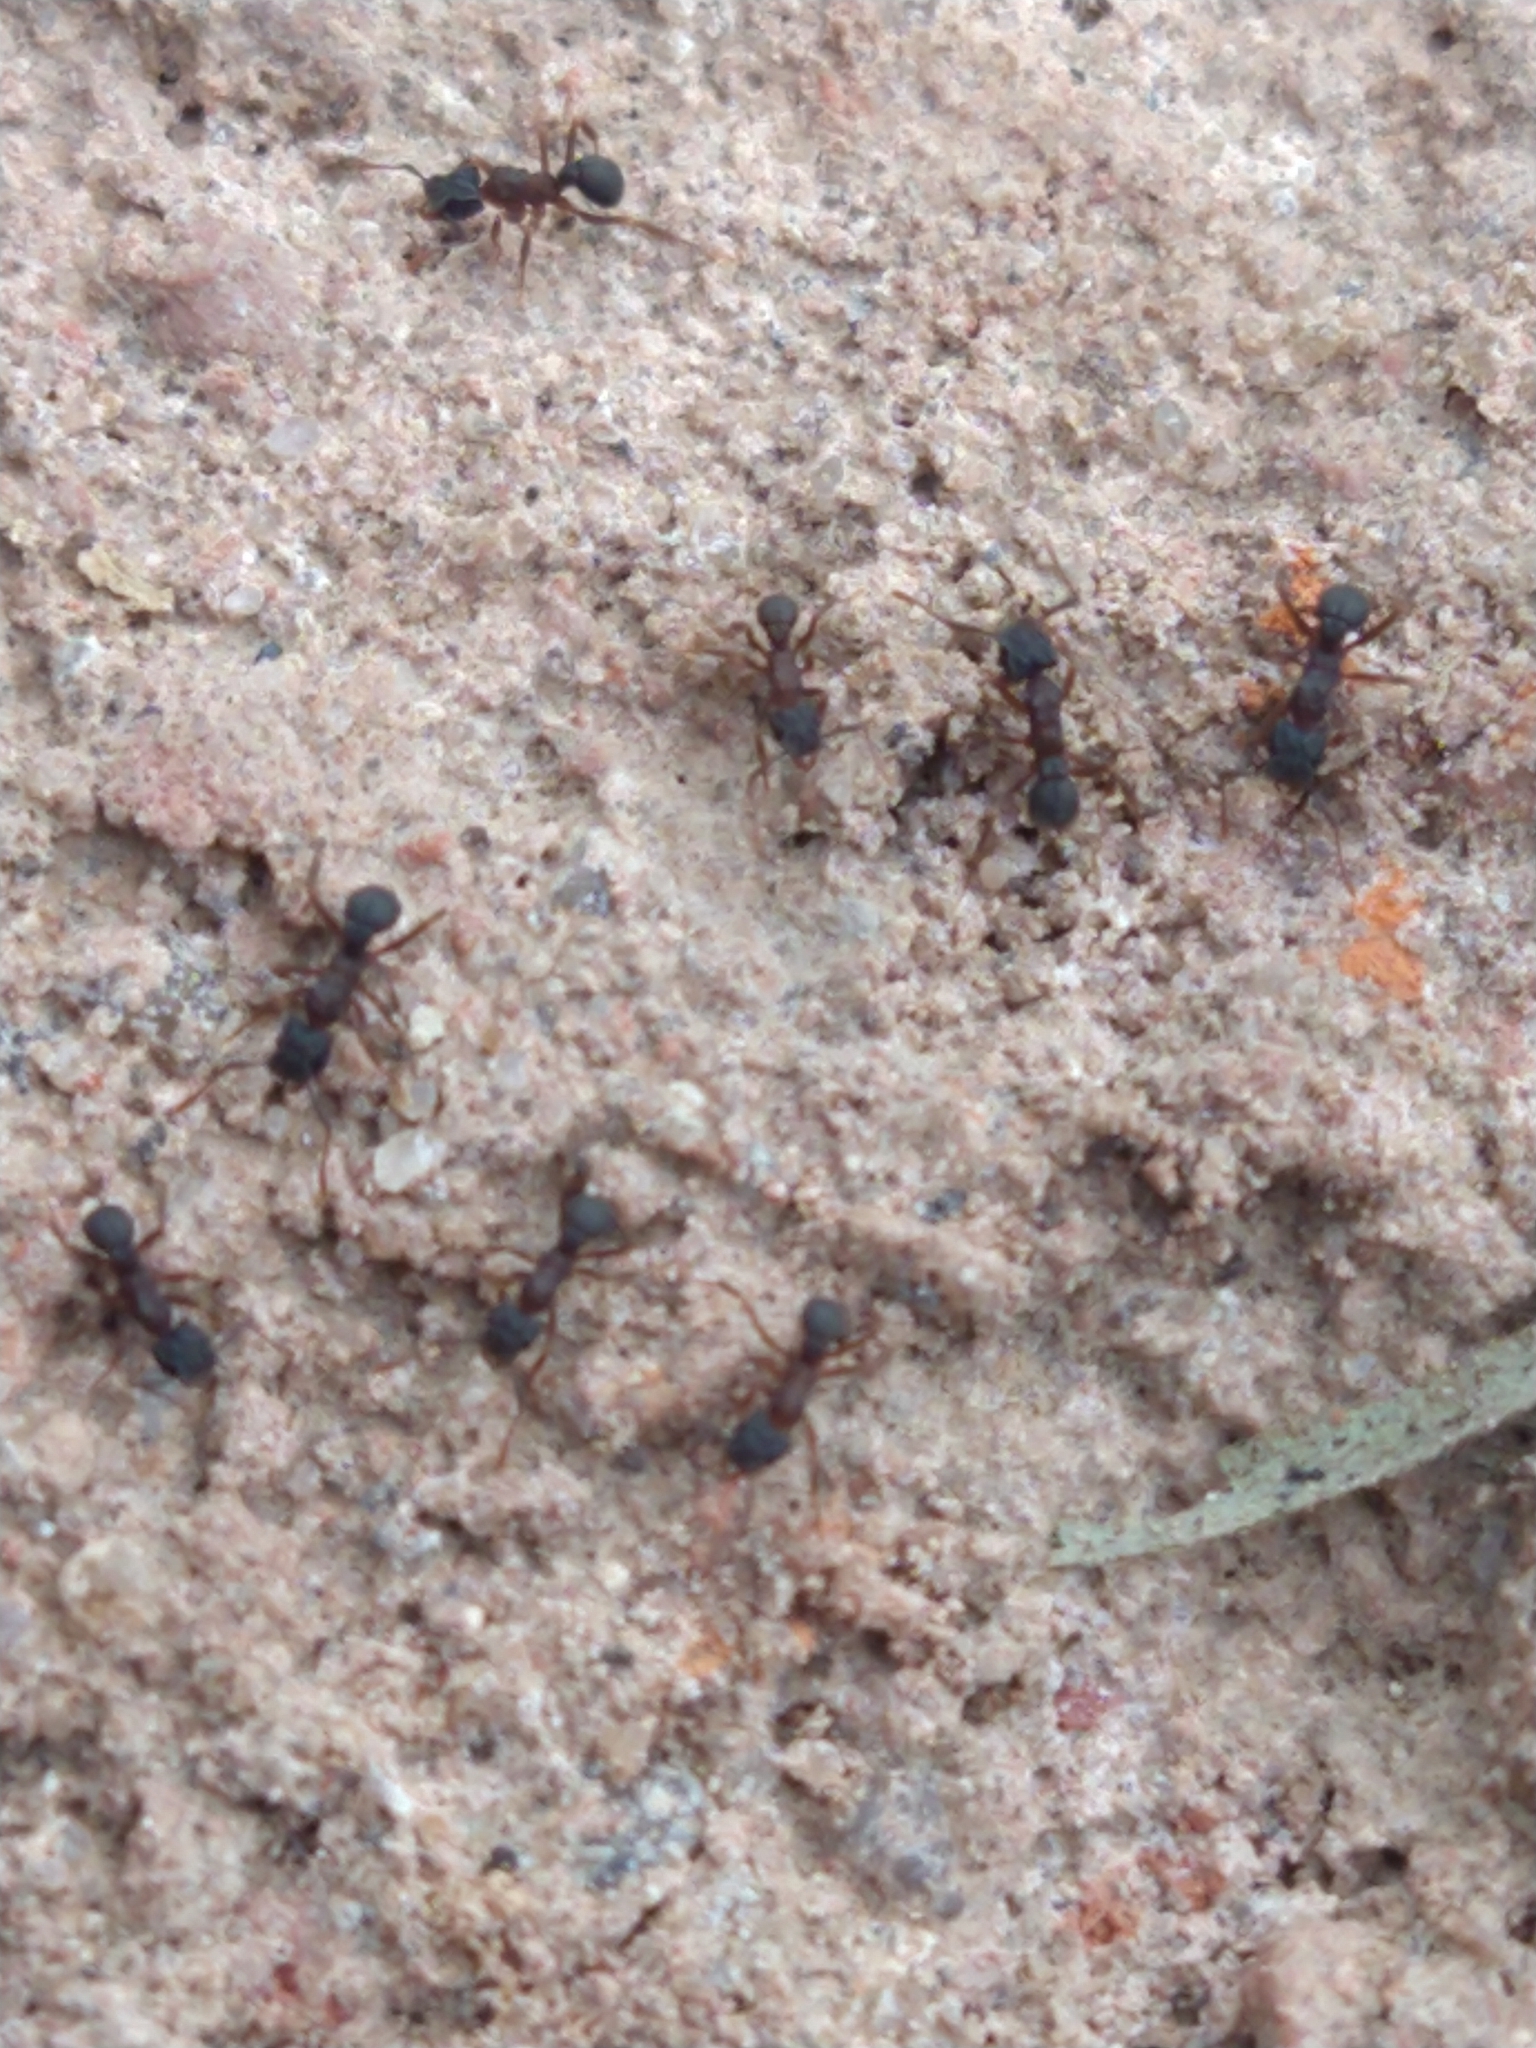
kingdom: Animalia
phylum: Arthropoda
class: Insecta
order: Hymenoptera
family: Formicidae
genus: Cyphomyrmex
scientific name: Cyphomyrmex
